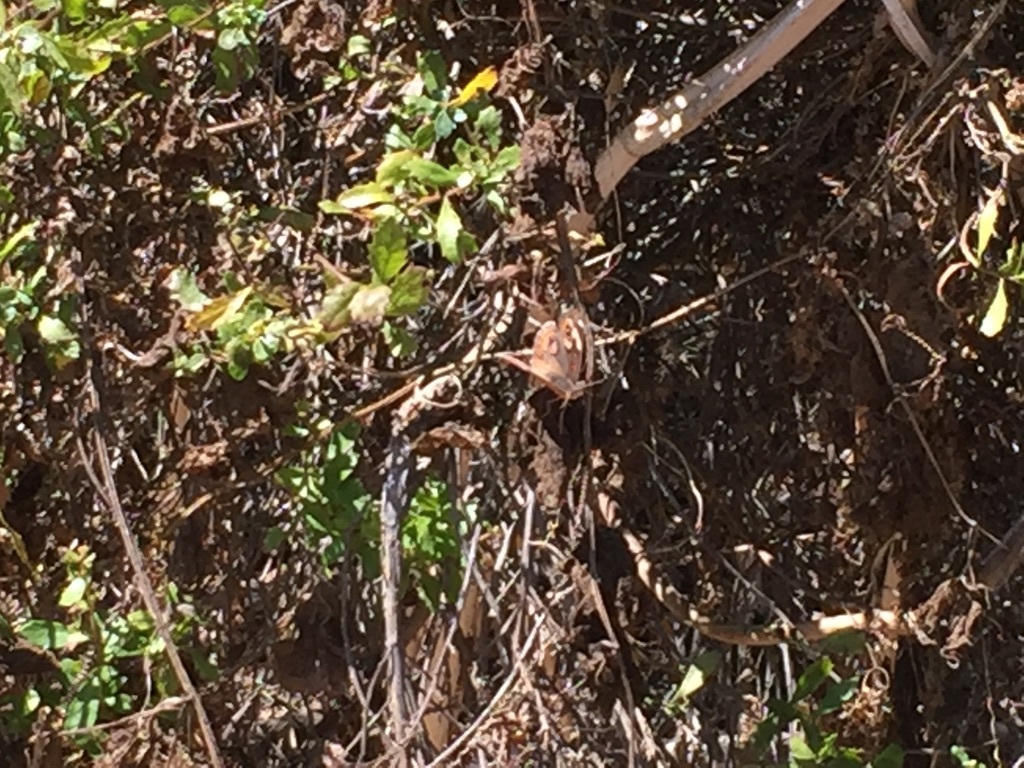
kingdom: Animalia
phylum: Arthropoda
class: Insecta
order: Lepidoptera
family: Nymphalidae
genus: Junonia
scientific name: Junonia grisea
